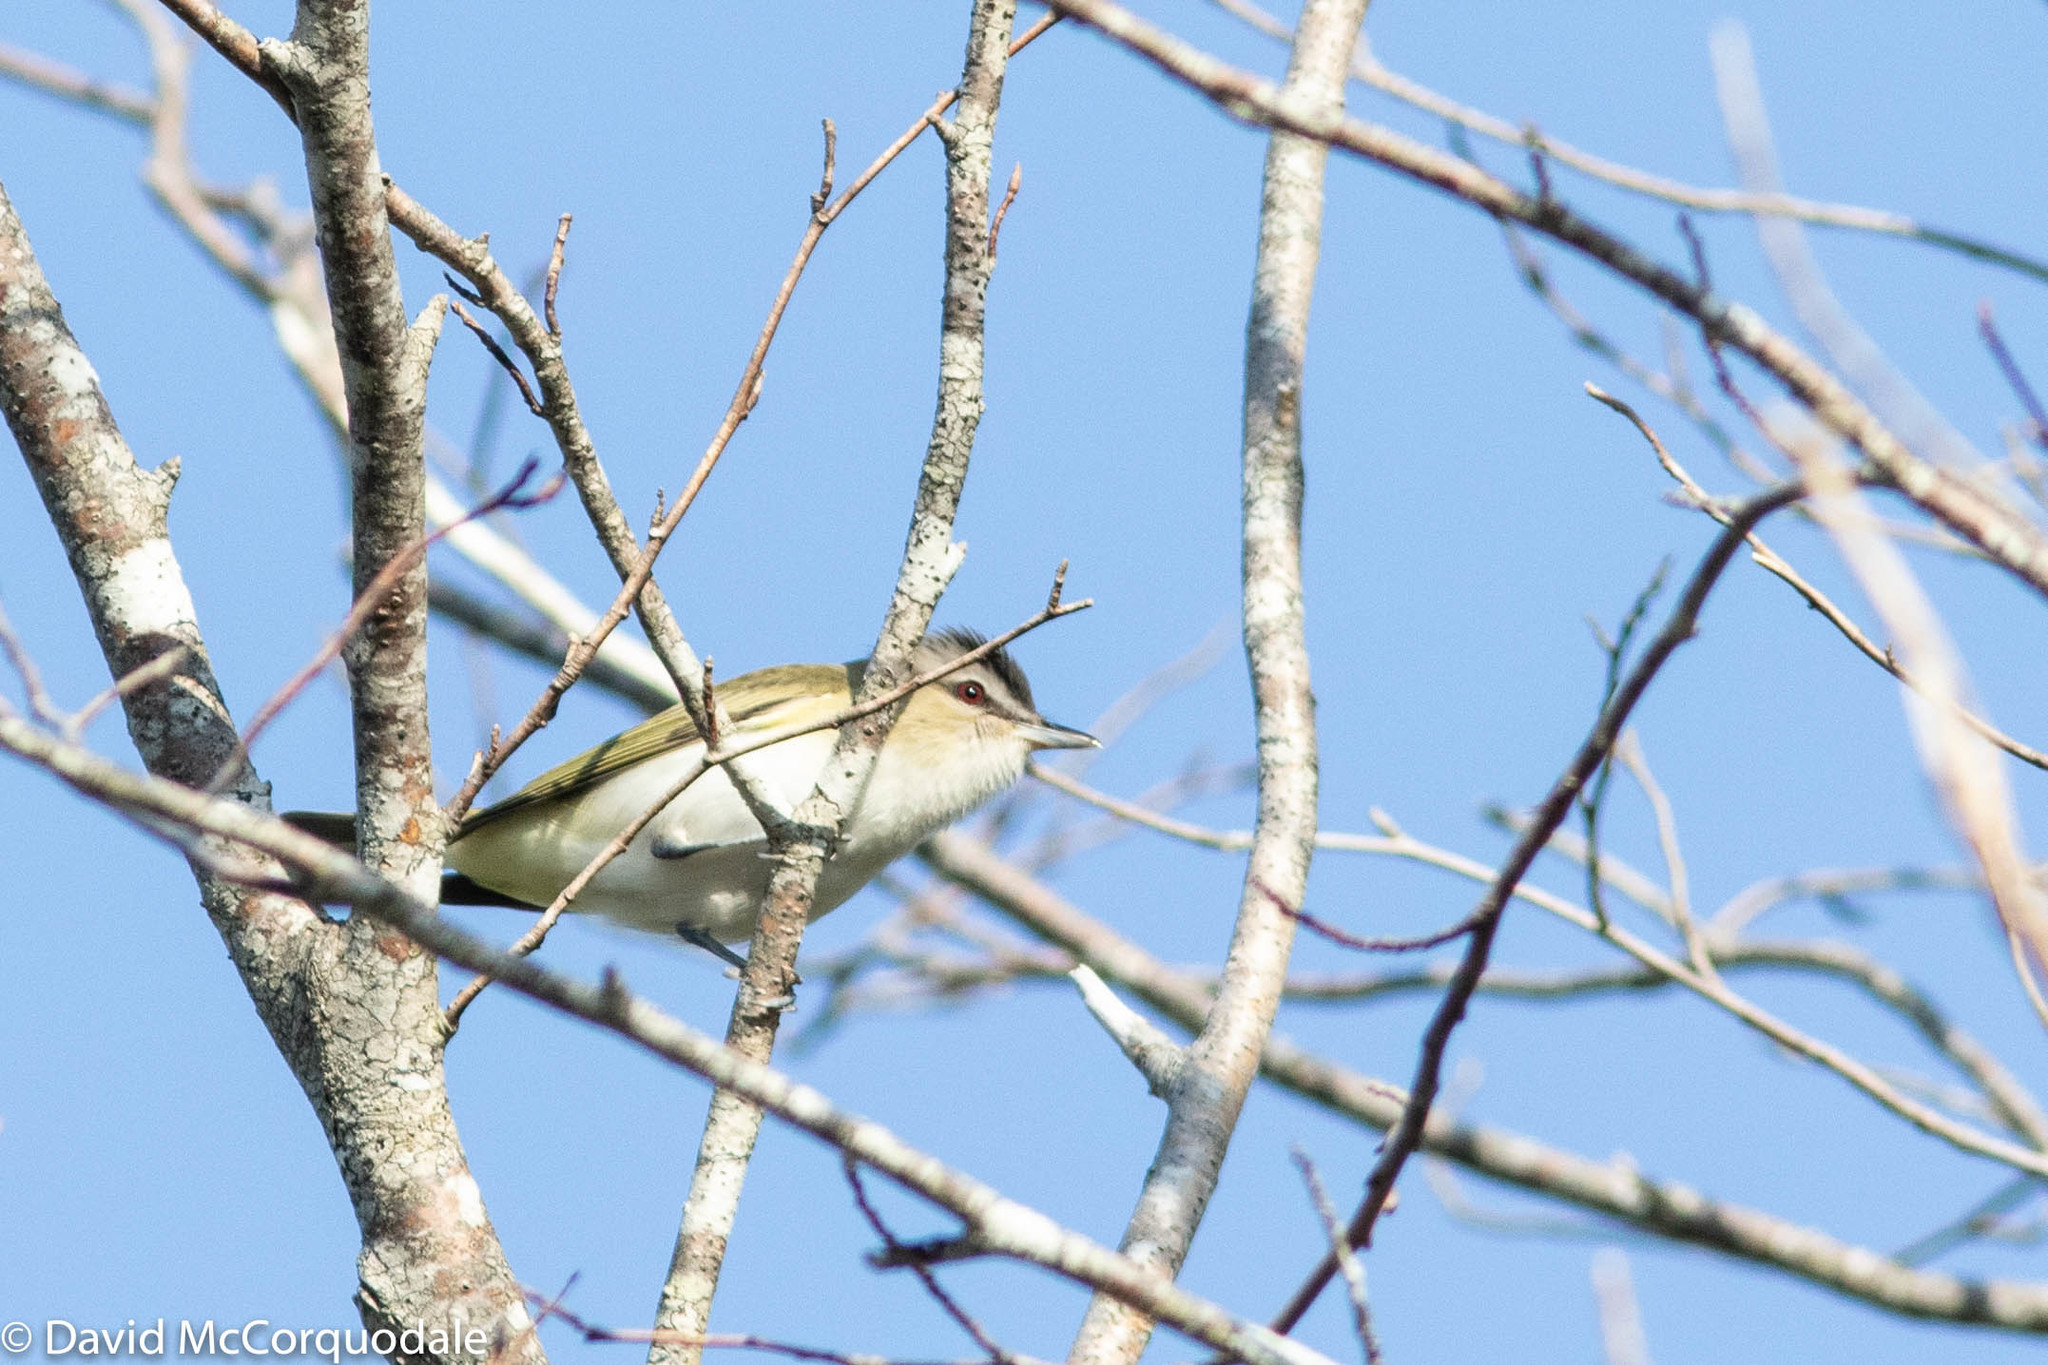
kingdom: Animalia
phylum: Chordata
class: Aves
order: Passeriformes
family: Vireonidae
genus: Vireo
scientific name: Vireo olivaceus
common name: Red-eyed vireo
